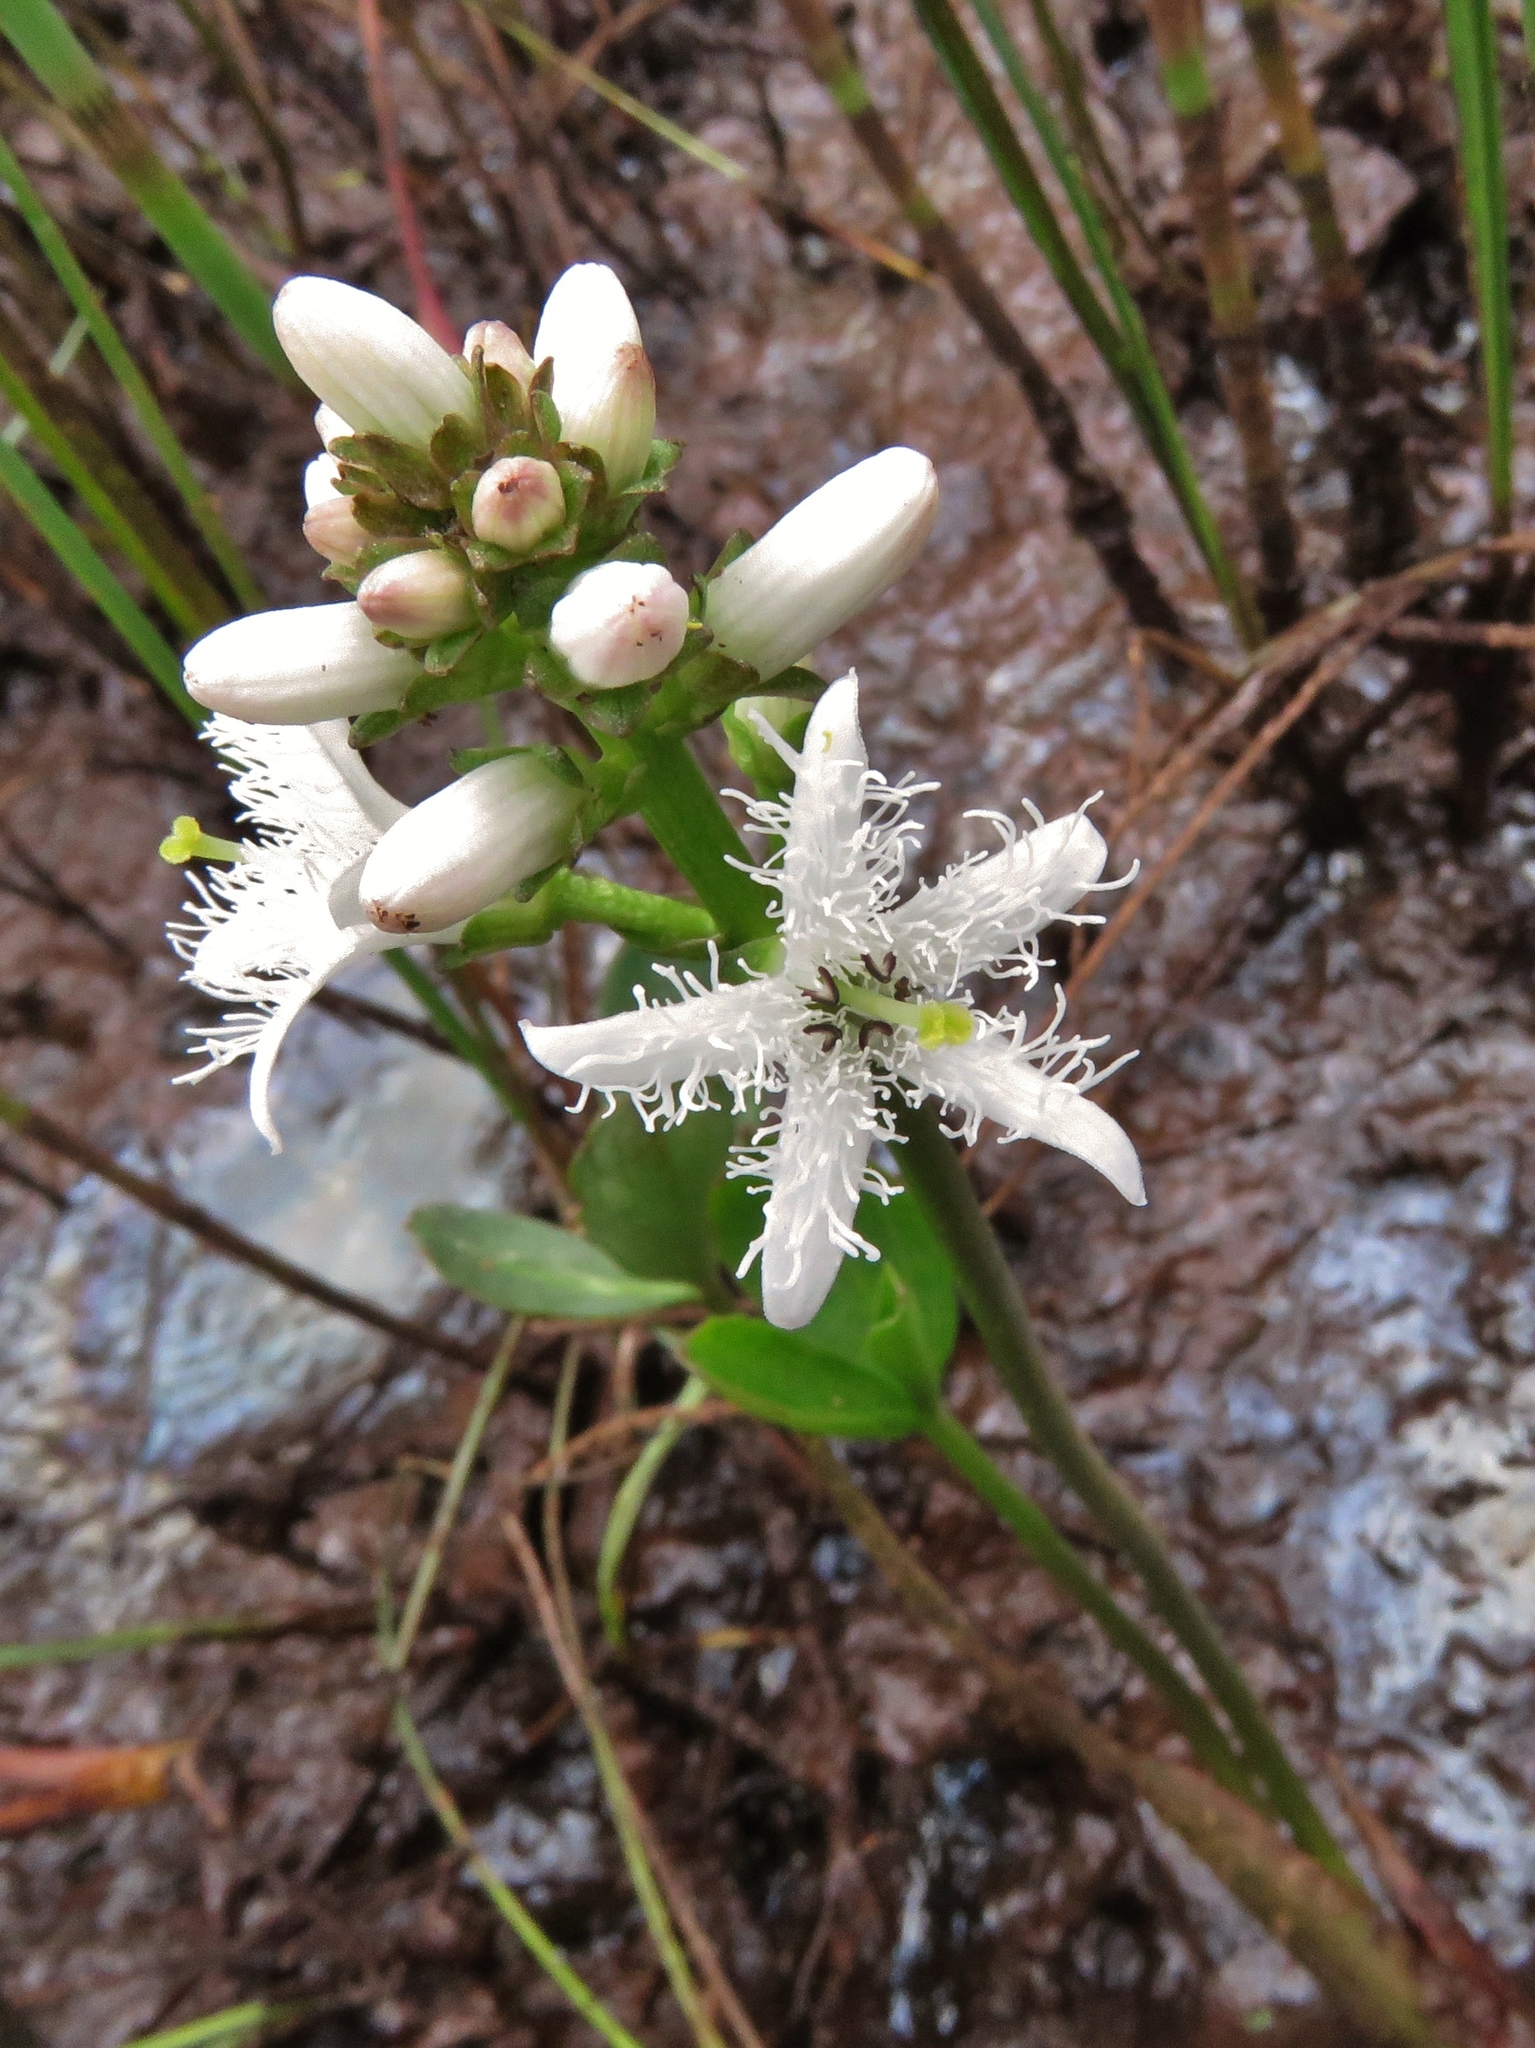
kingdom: Plantae
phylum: Tracheophyta
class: Magnoliopsida
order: Asterales
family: Menyanthaceae
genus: Menyanthes
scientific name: Menyanthes trifoliata
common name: Bogbean
